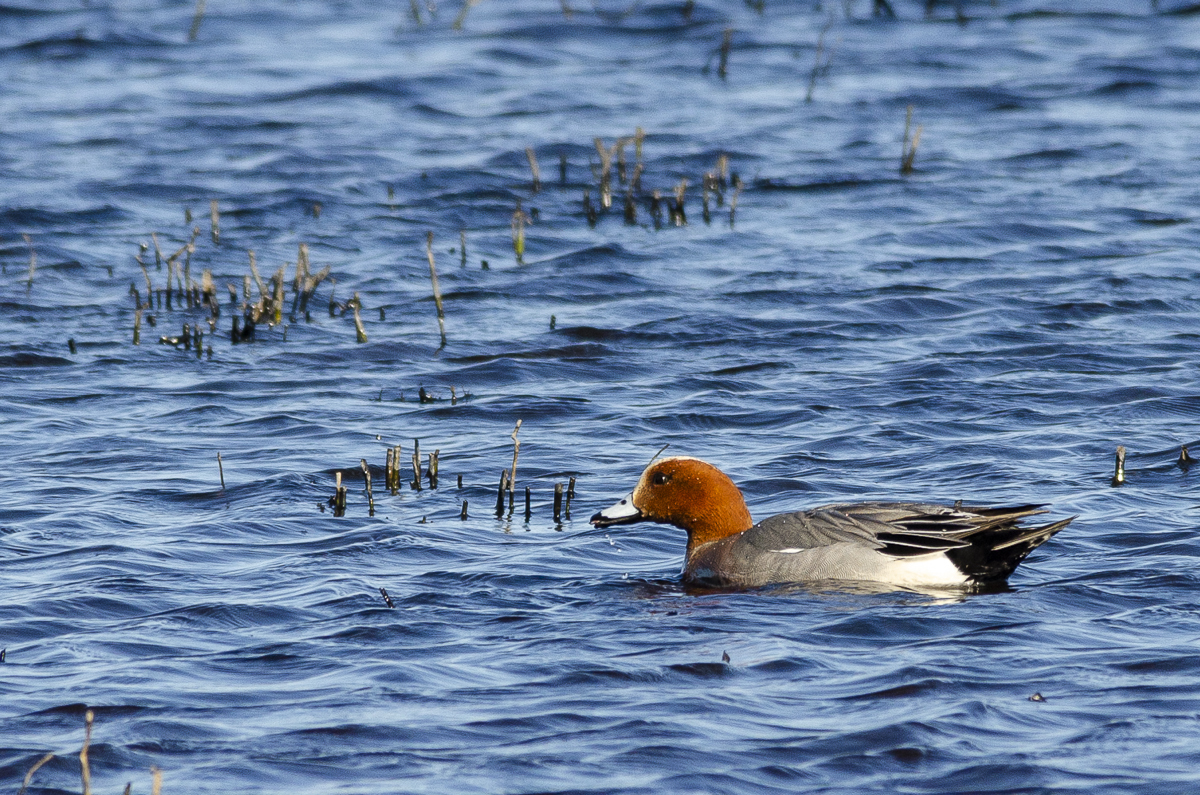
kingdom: Animalia
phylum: Chordata
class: Aves
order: Anseriformes
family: Anatidae
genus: Mareca
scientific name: Mareca penelope
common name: Eurasian wigeon
